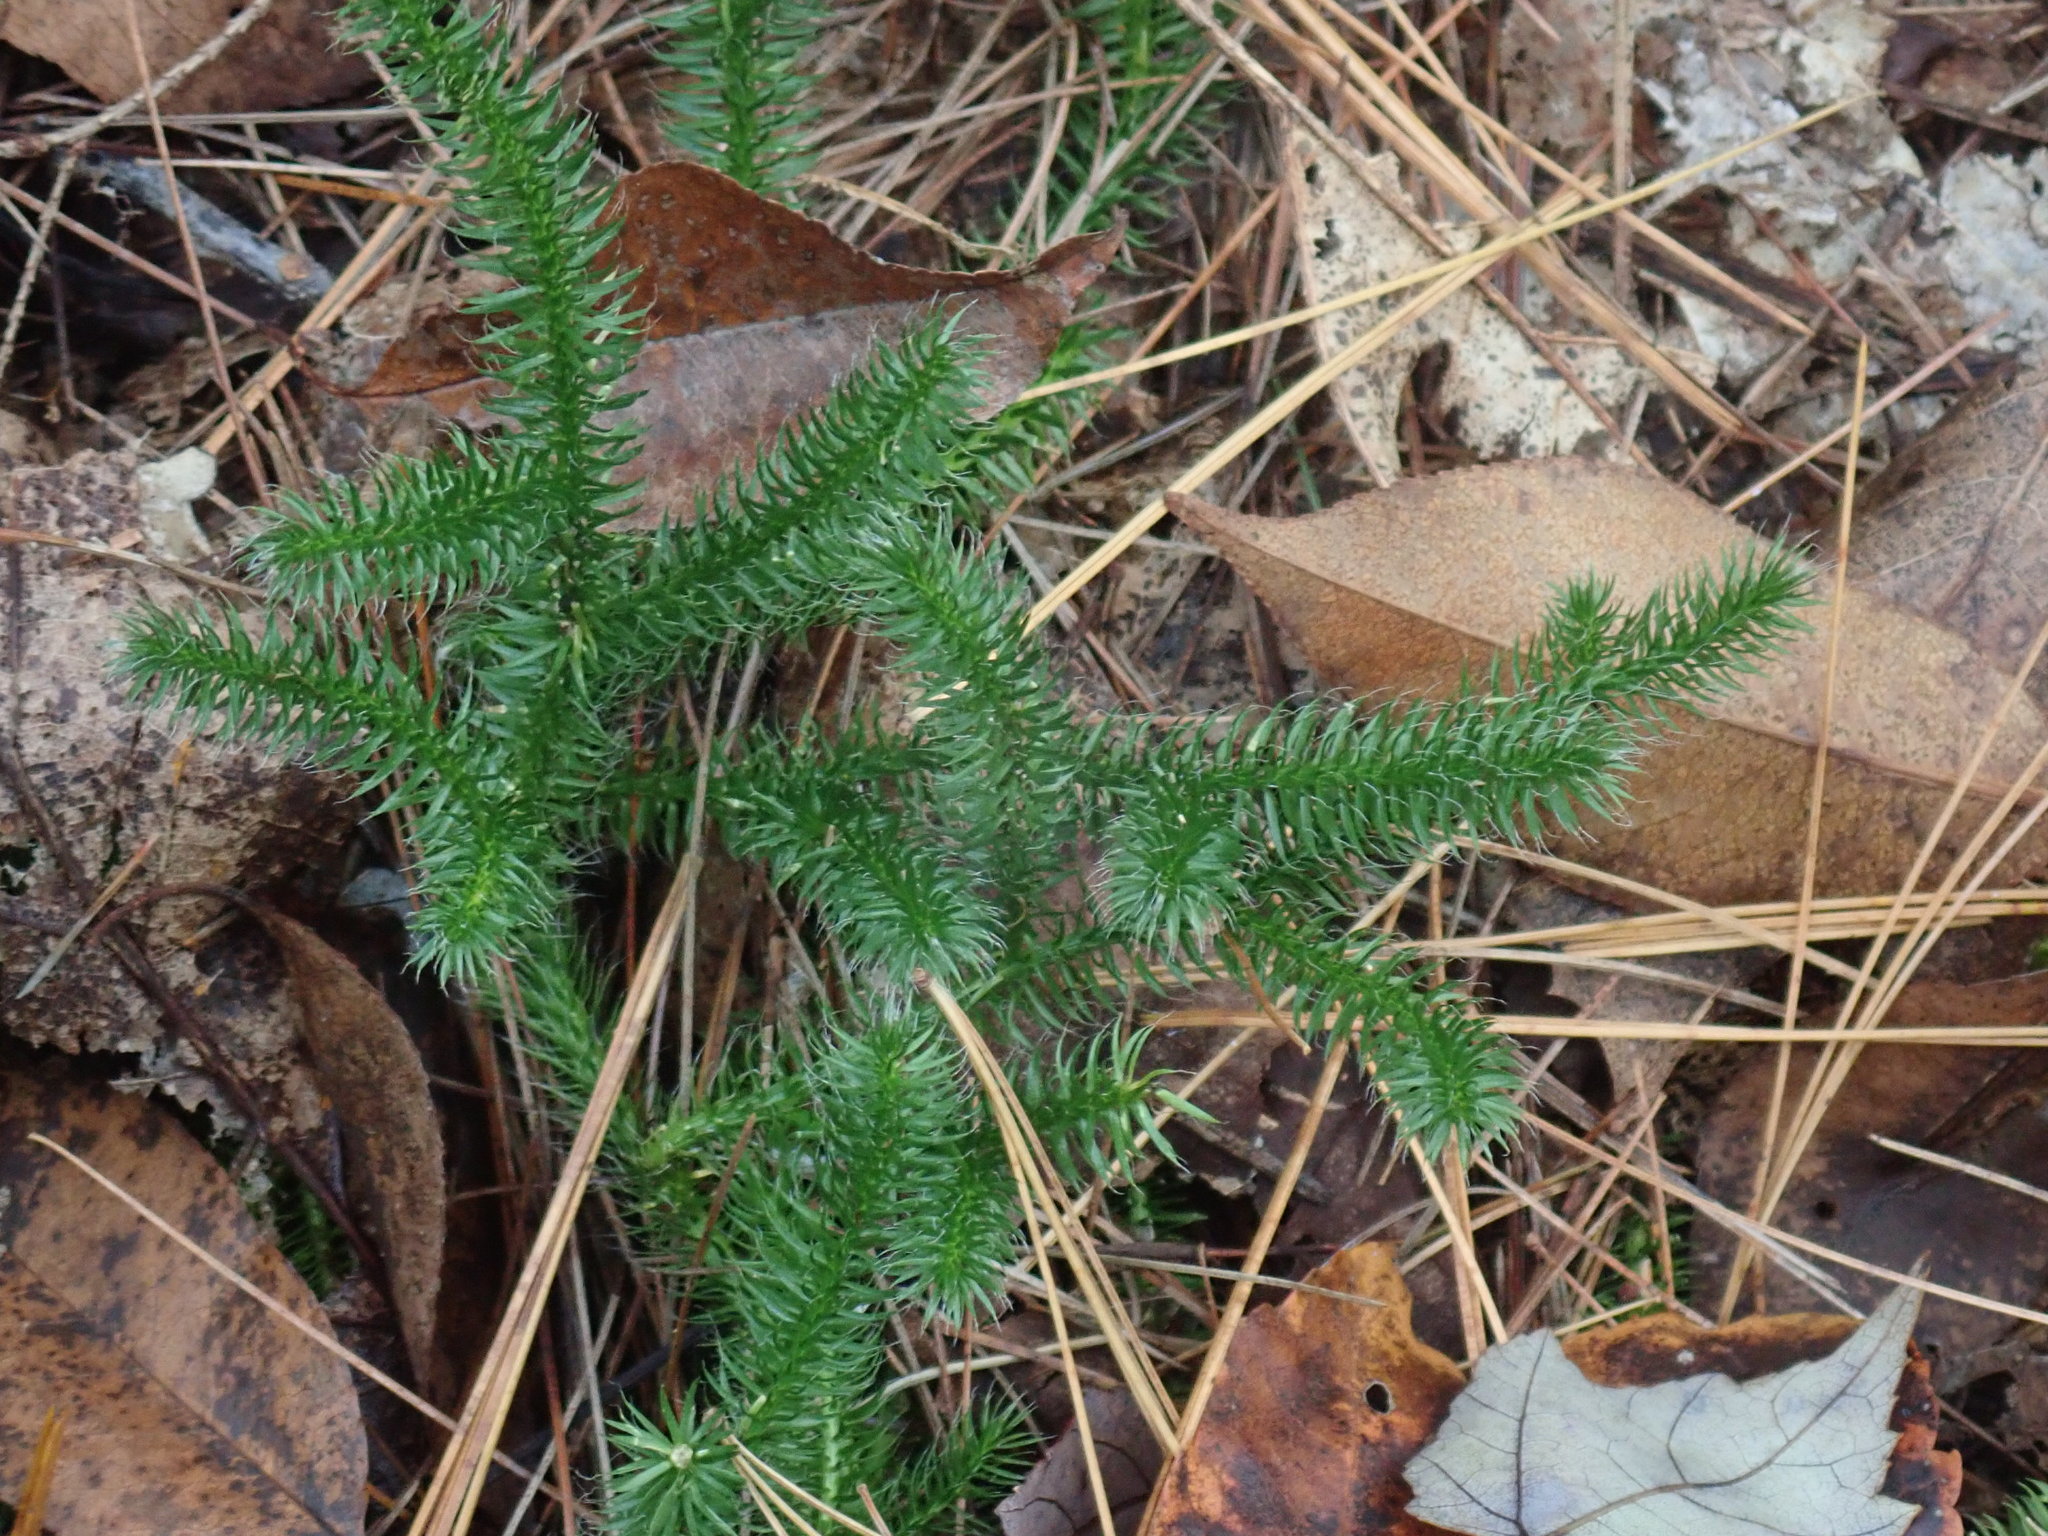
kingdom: Plantae
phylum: Tracheophyta
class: Lycopodiopsida
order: Lycopodiales
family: Lycopodiaceae
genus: Lycopodium
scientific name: Lycopodium clavatum
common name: Stag's-horn clubmoss
